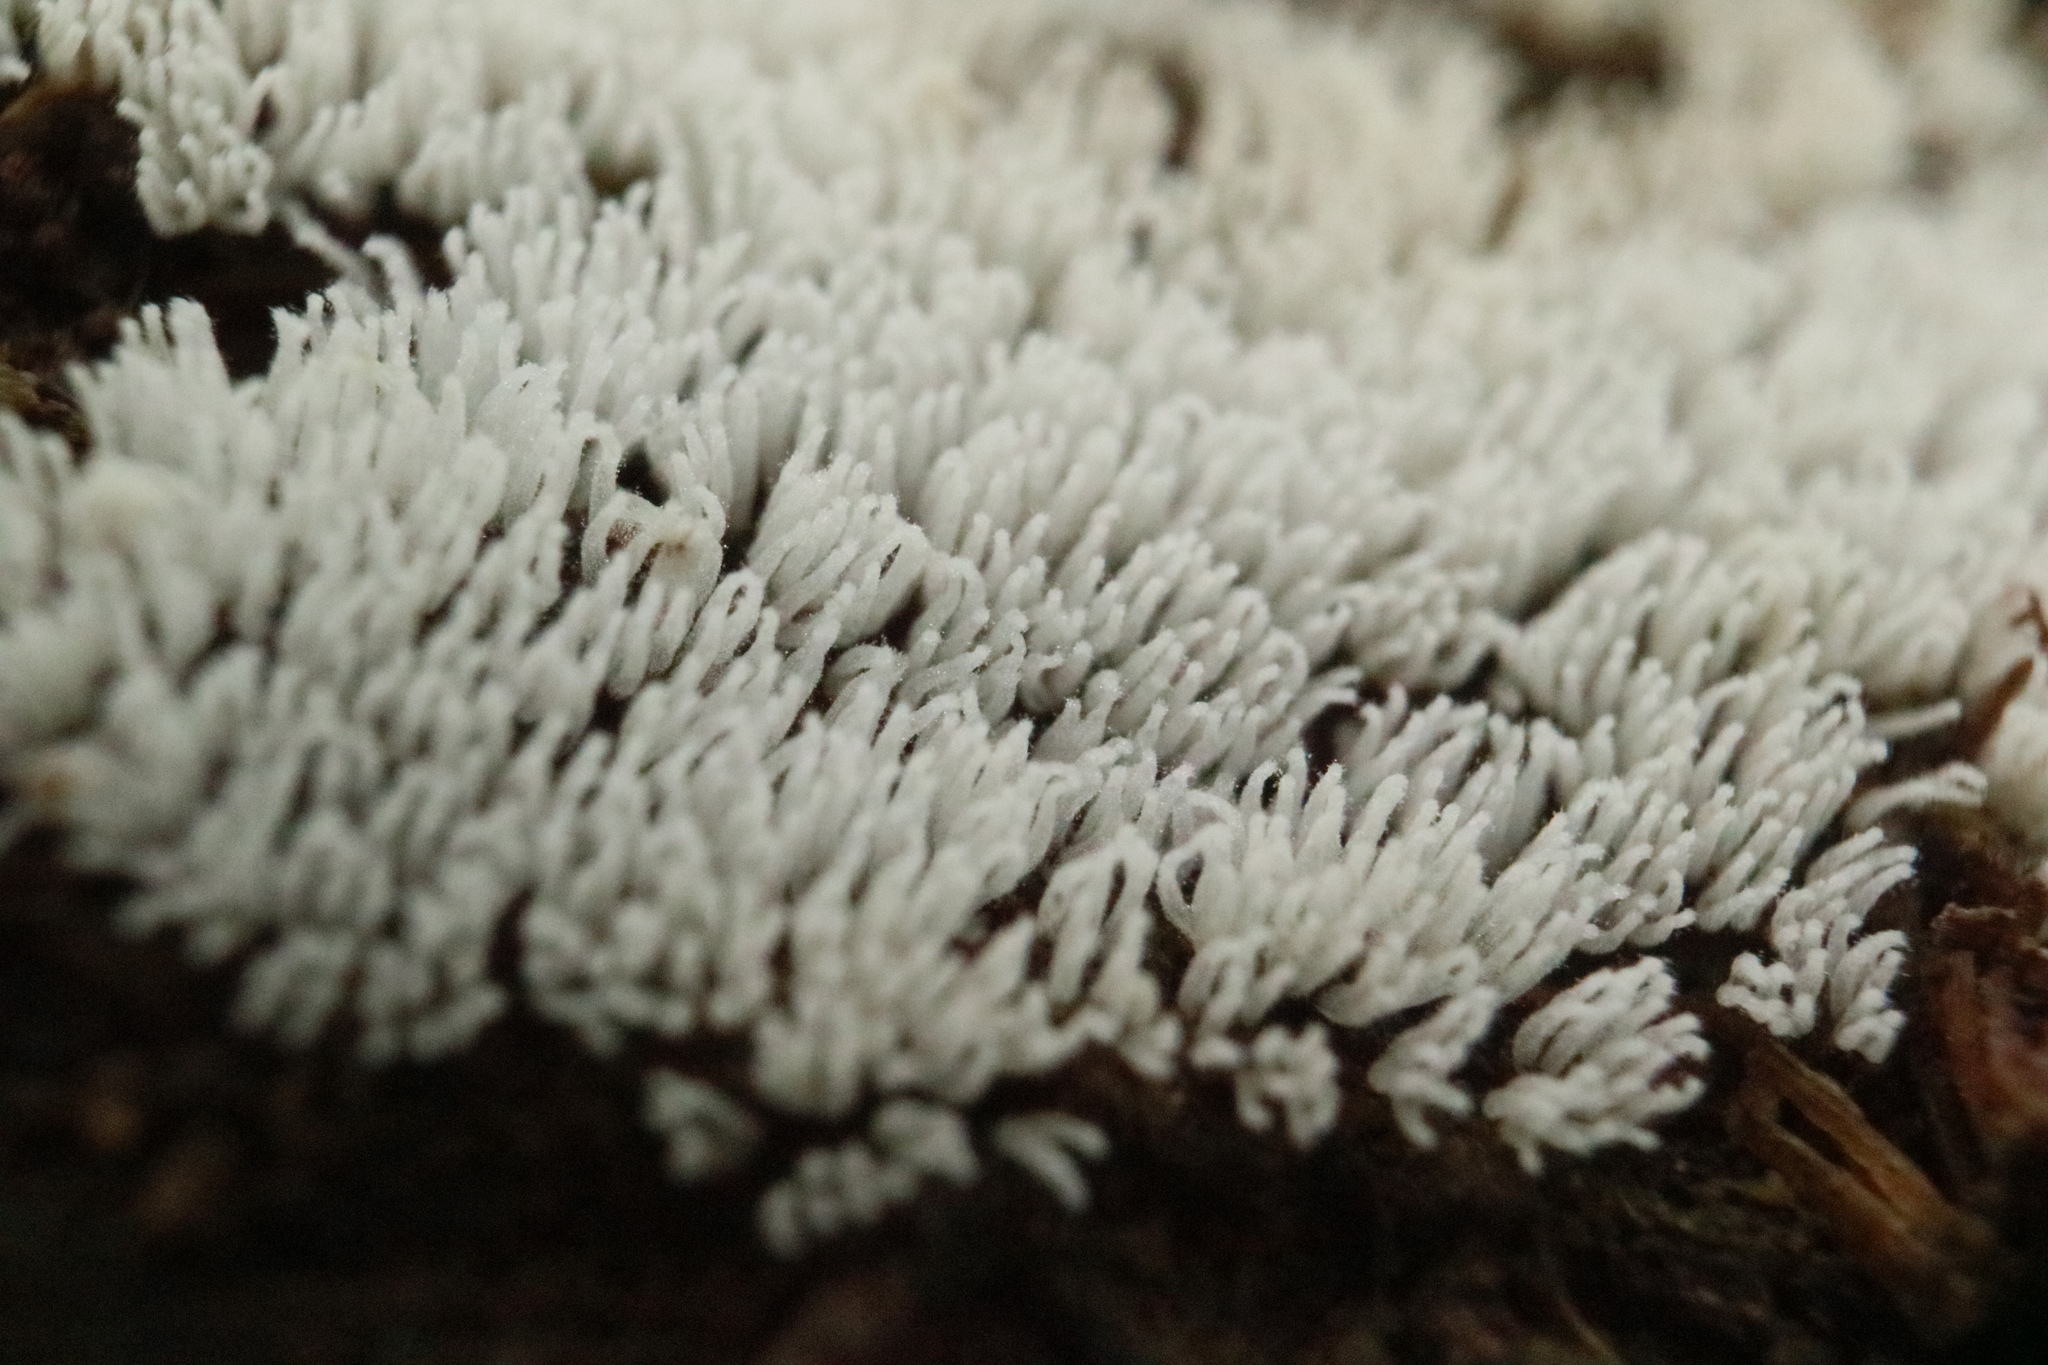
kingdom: Protozoa
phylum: Mycetozoa
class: Protosteliomycetes
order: Ceratiomyxales
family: Ceratiomyxaceae
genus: Ceratiomyxa
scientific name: Ceratiomyxa fruticulosa
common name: Honeycomb coral slime mold
